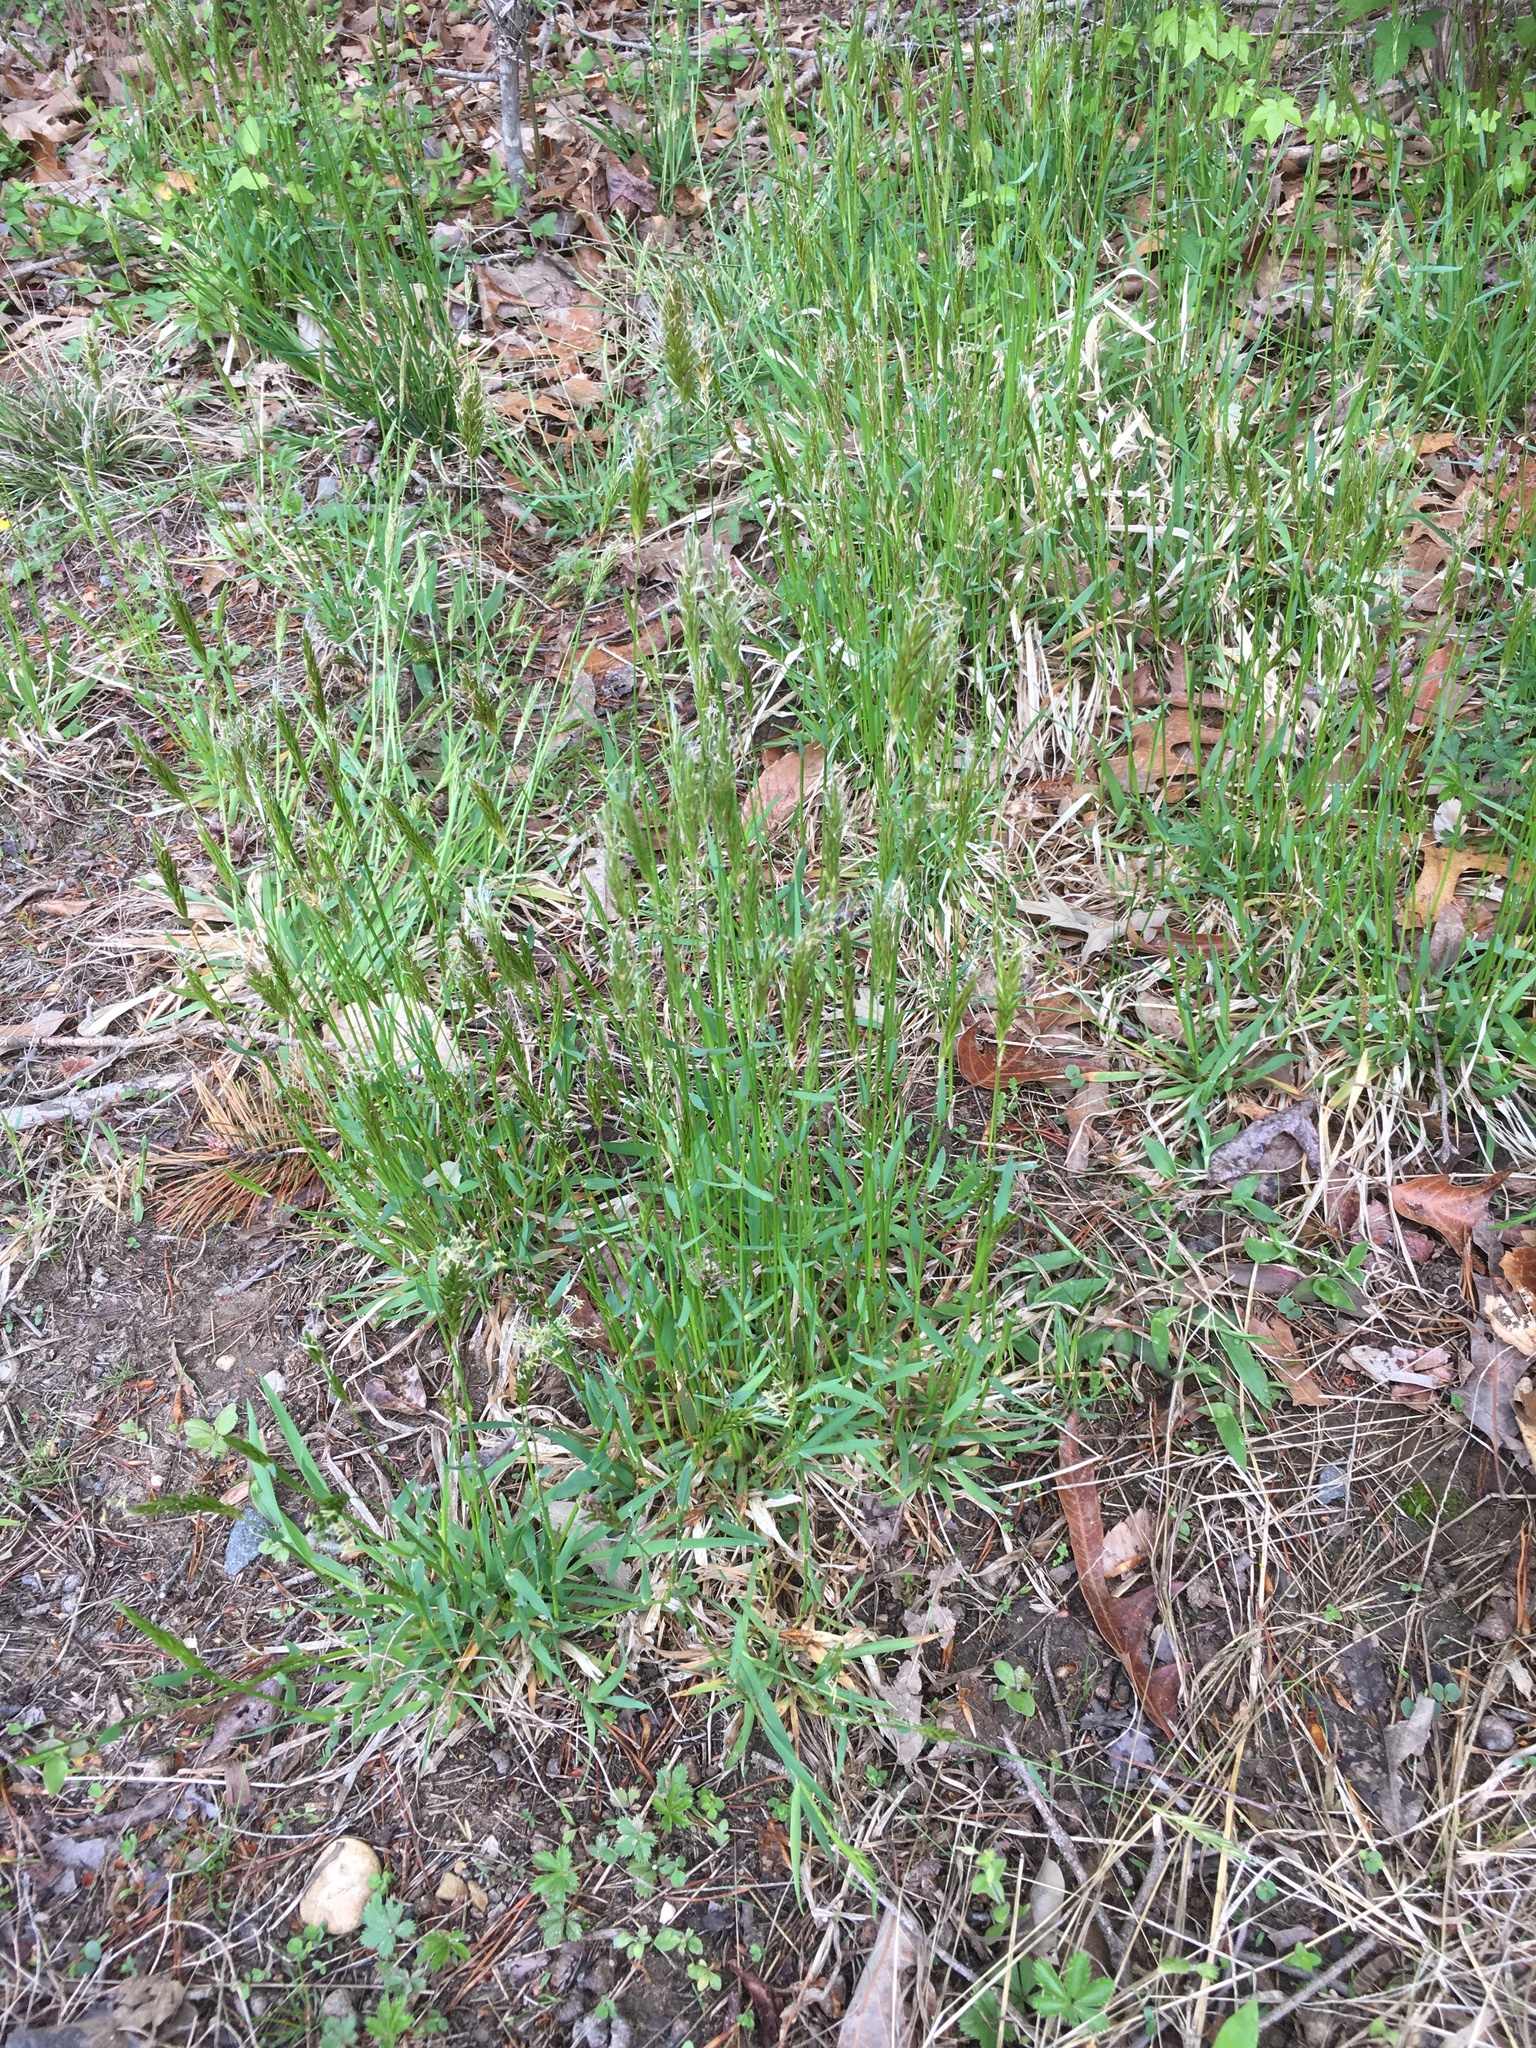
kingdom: Plantae
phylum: Tracheophyta
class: Liliopsida
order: Poales
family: Poaceae
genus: Anthoxanthum
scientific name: Anthoxanthum odoratum
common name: Sweet vernalgrass
